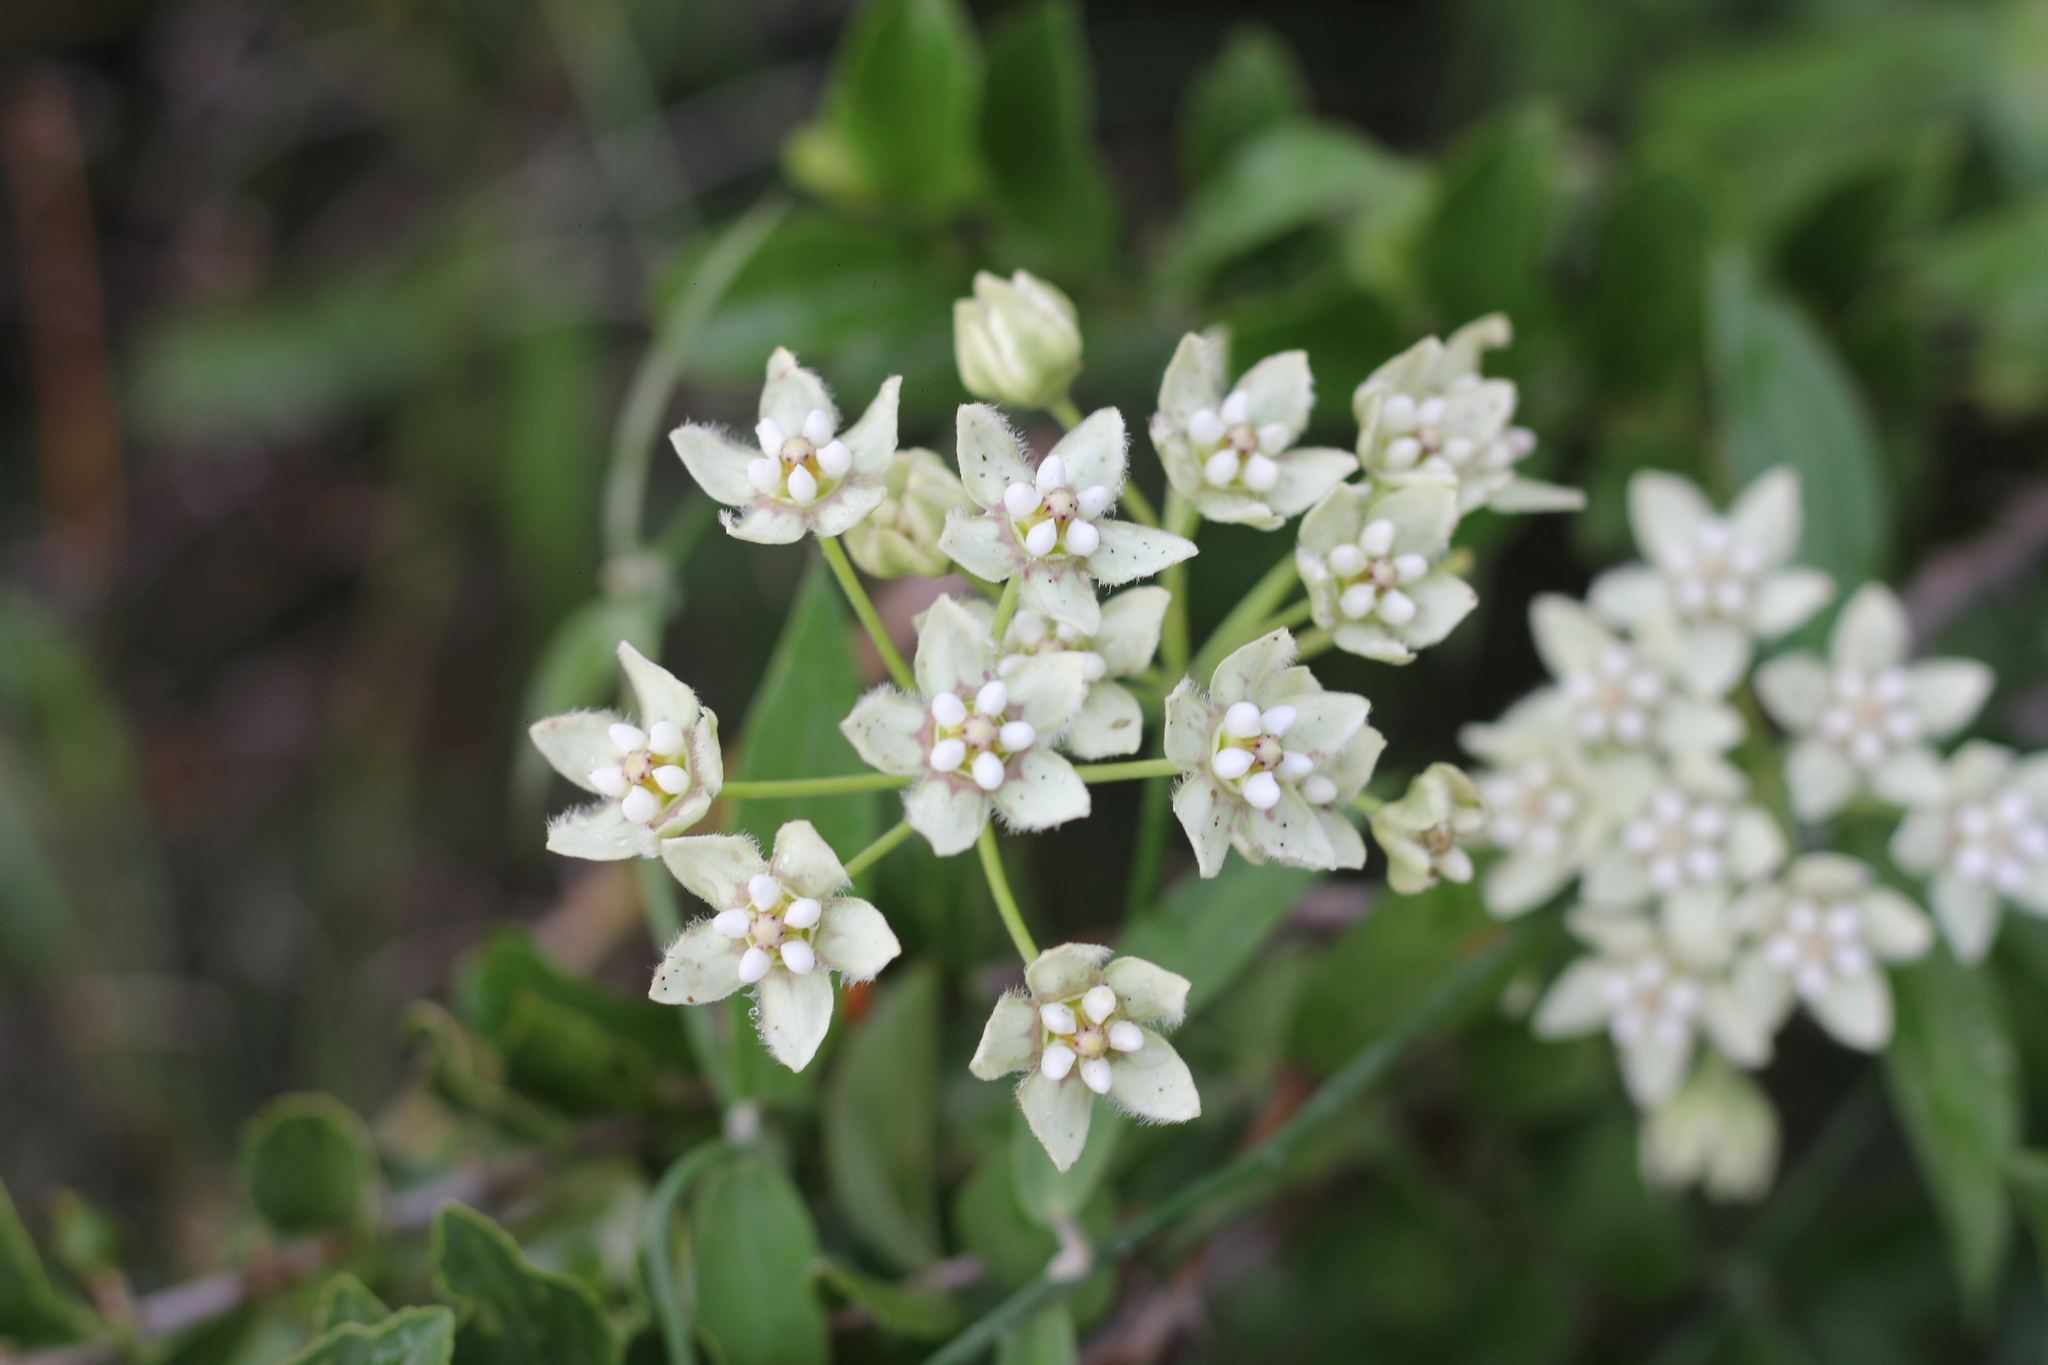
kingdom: Plantae
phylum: Tracheophyta
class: Magnoliopsida
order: Gentianales
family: Apocynaceae
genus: Funastrum
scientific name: Funastrum clausum
